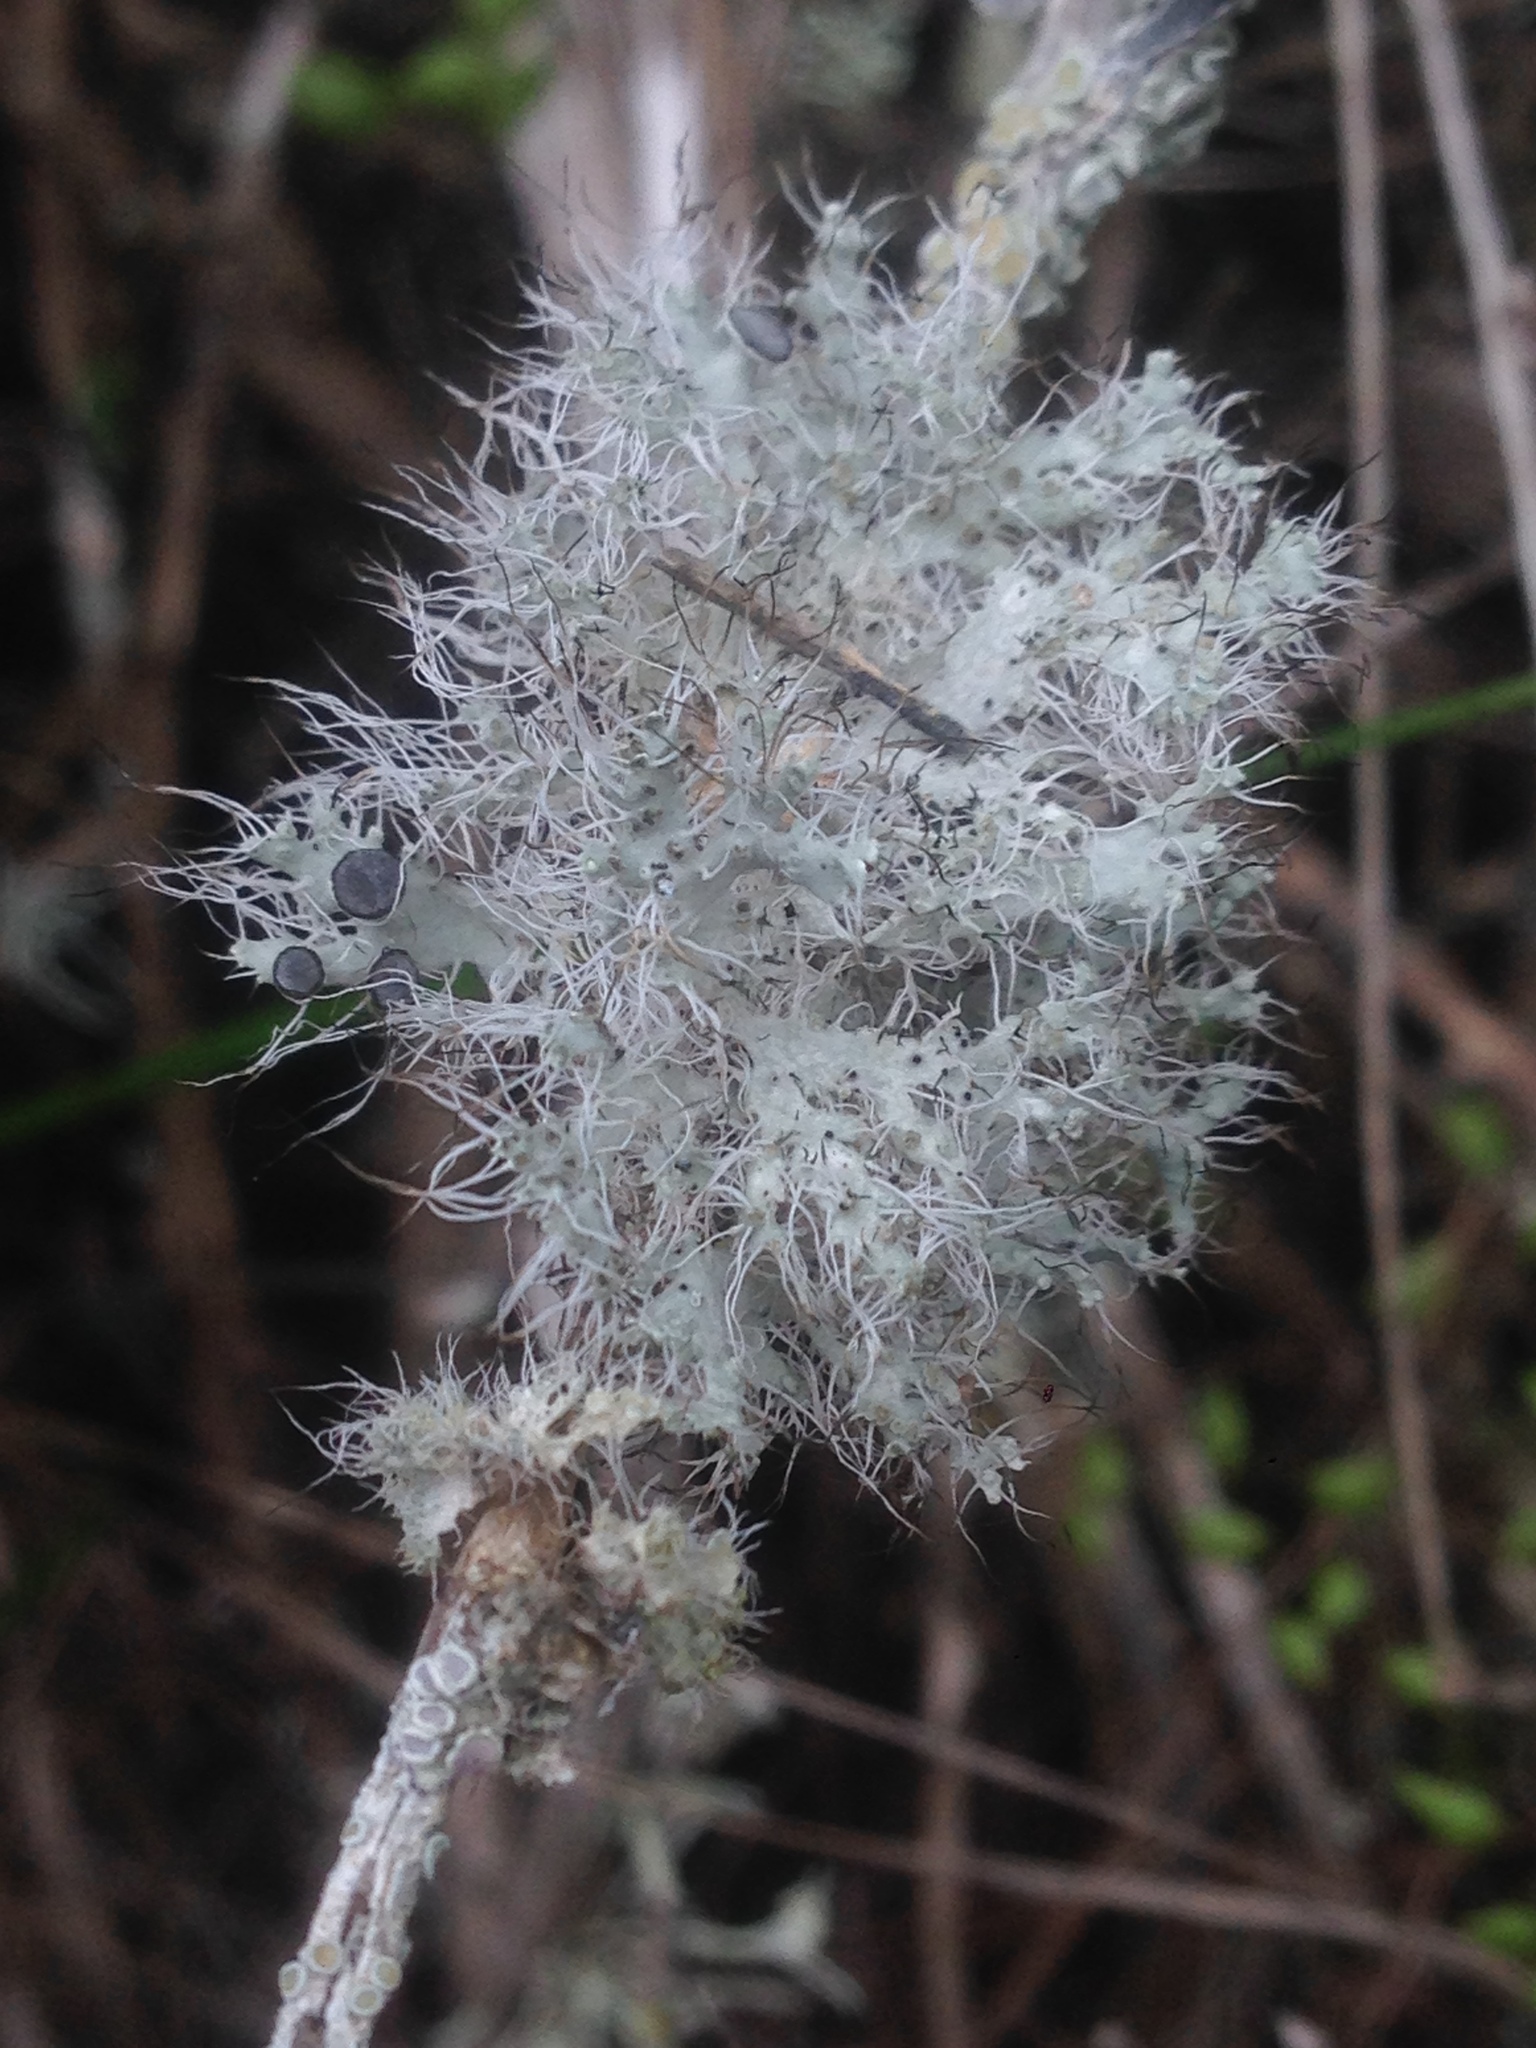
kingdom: Fungi
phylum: Ascomycota
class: Lecanoromycetes
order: Caliciales
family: Physciaceae
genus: Heterodermia
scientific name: Heterodermia namaquana
